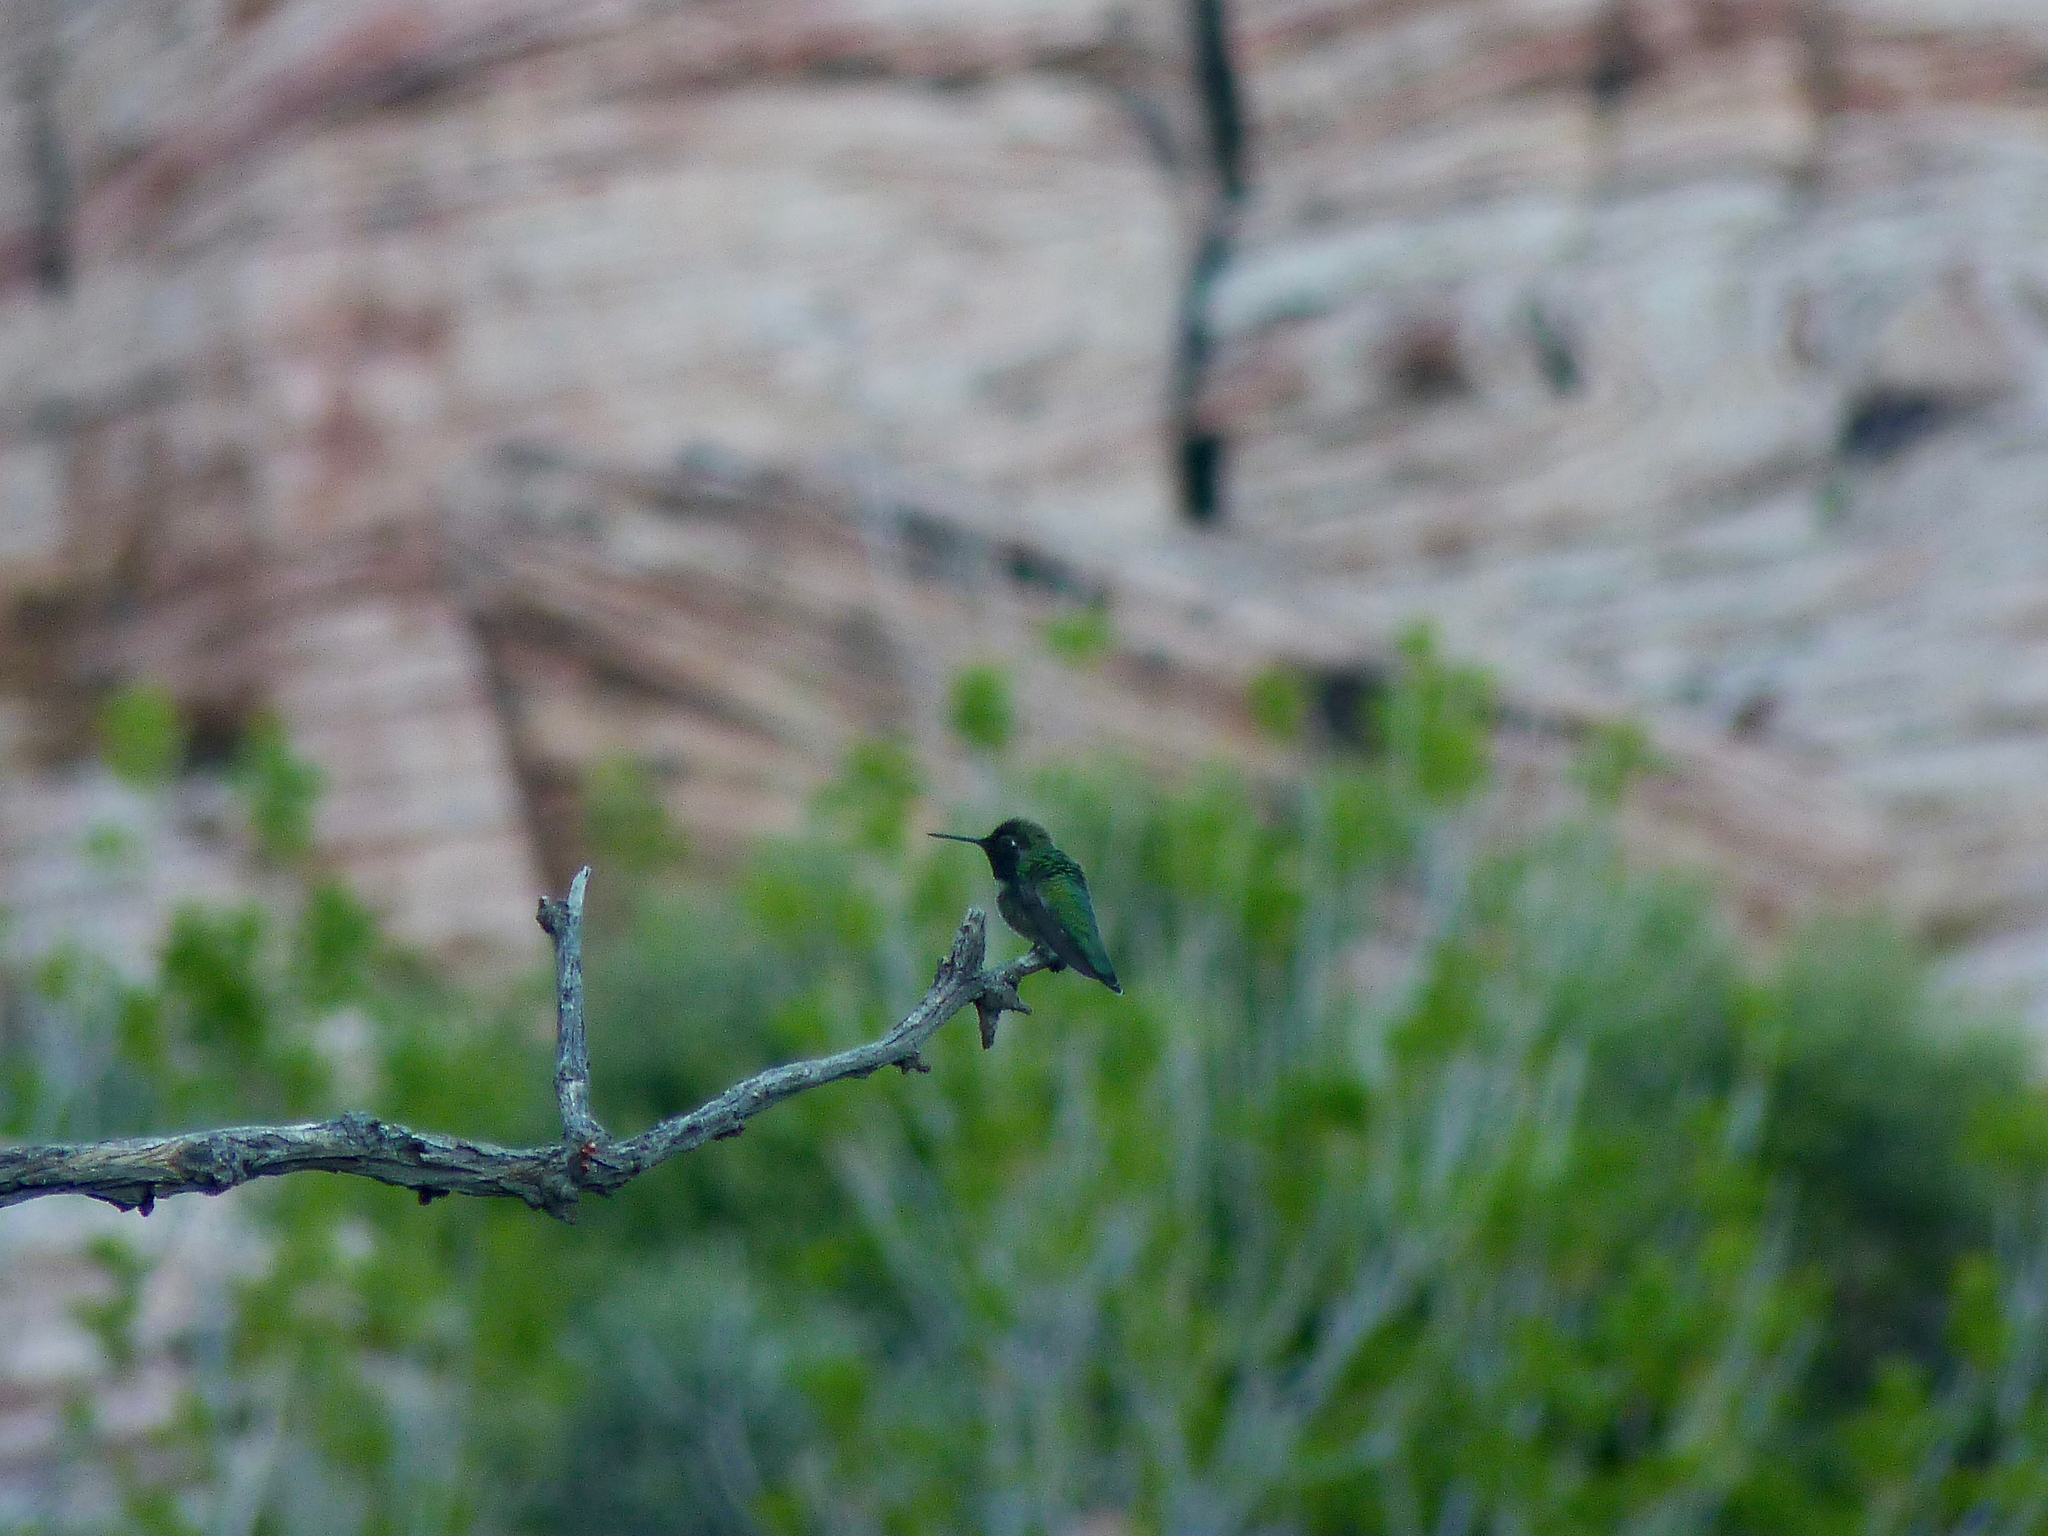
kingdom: Animalia
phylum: Chordata
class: Aves
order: Apodiformes
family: Trochilidae
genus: Calypte
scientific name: Calypte anna
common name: Anna's hummingbird
